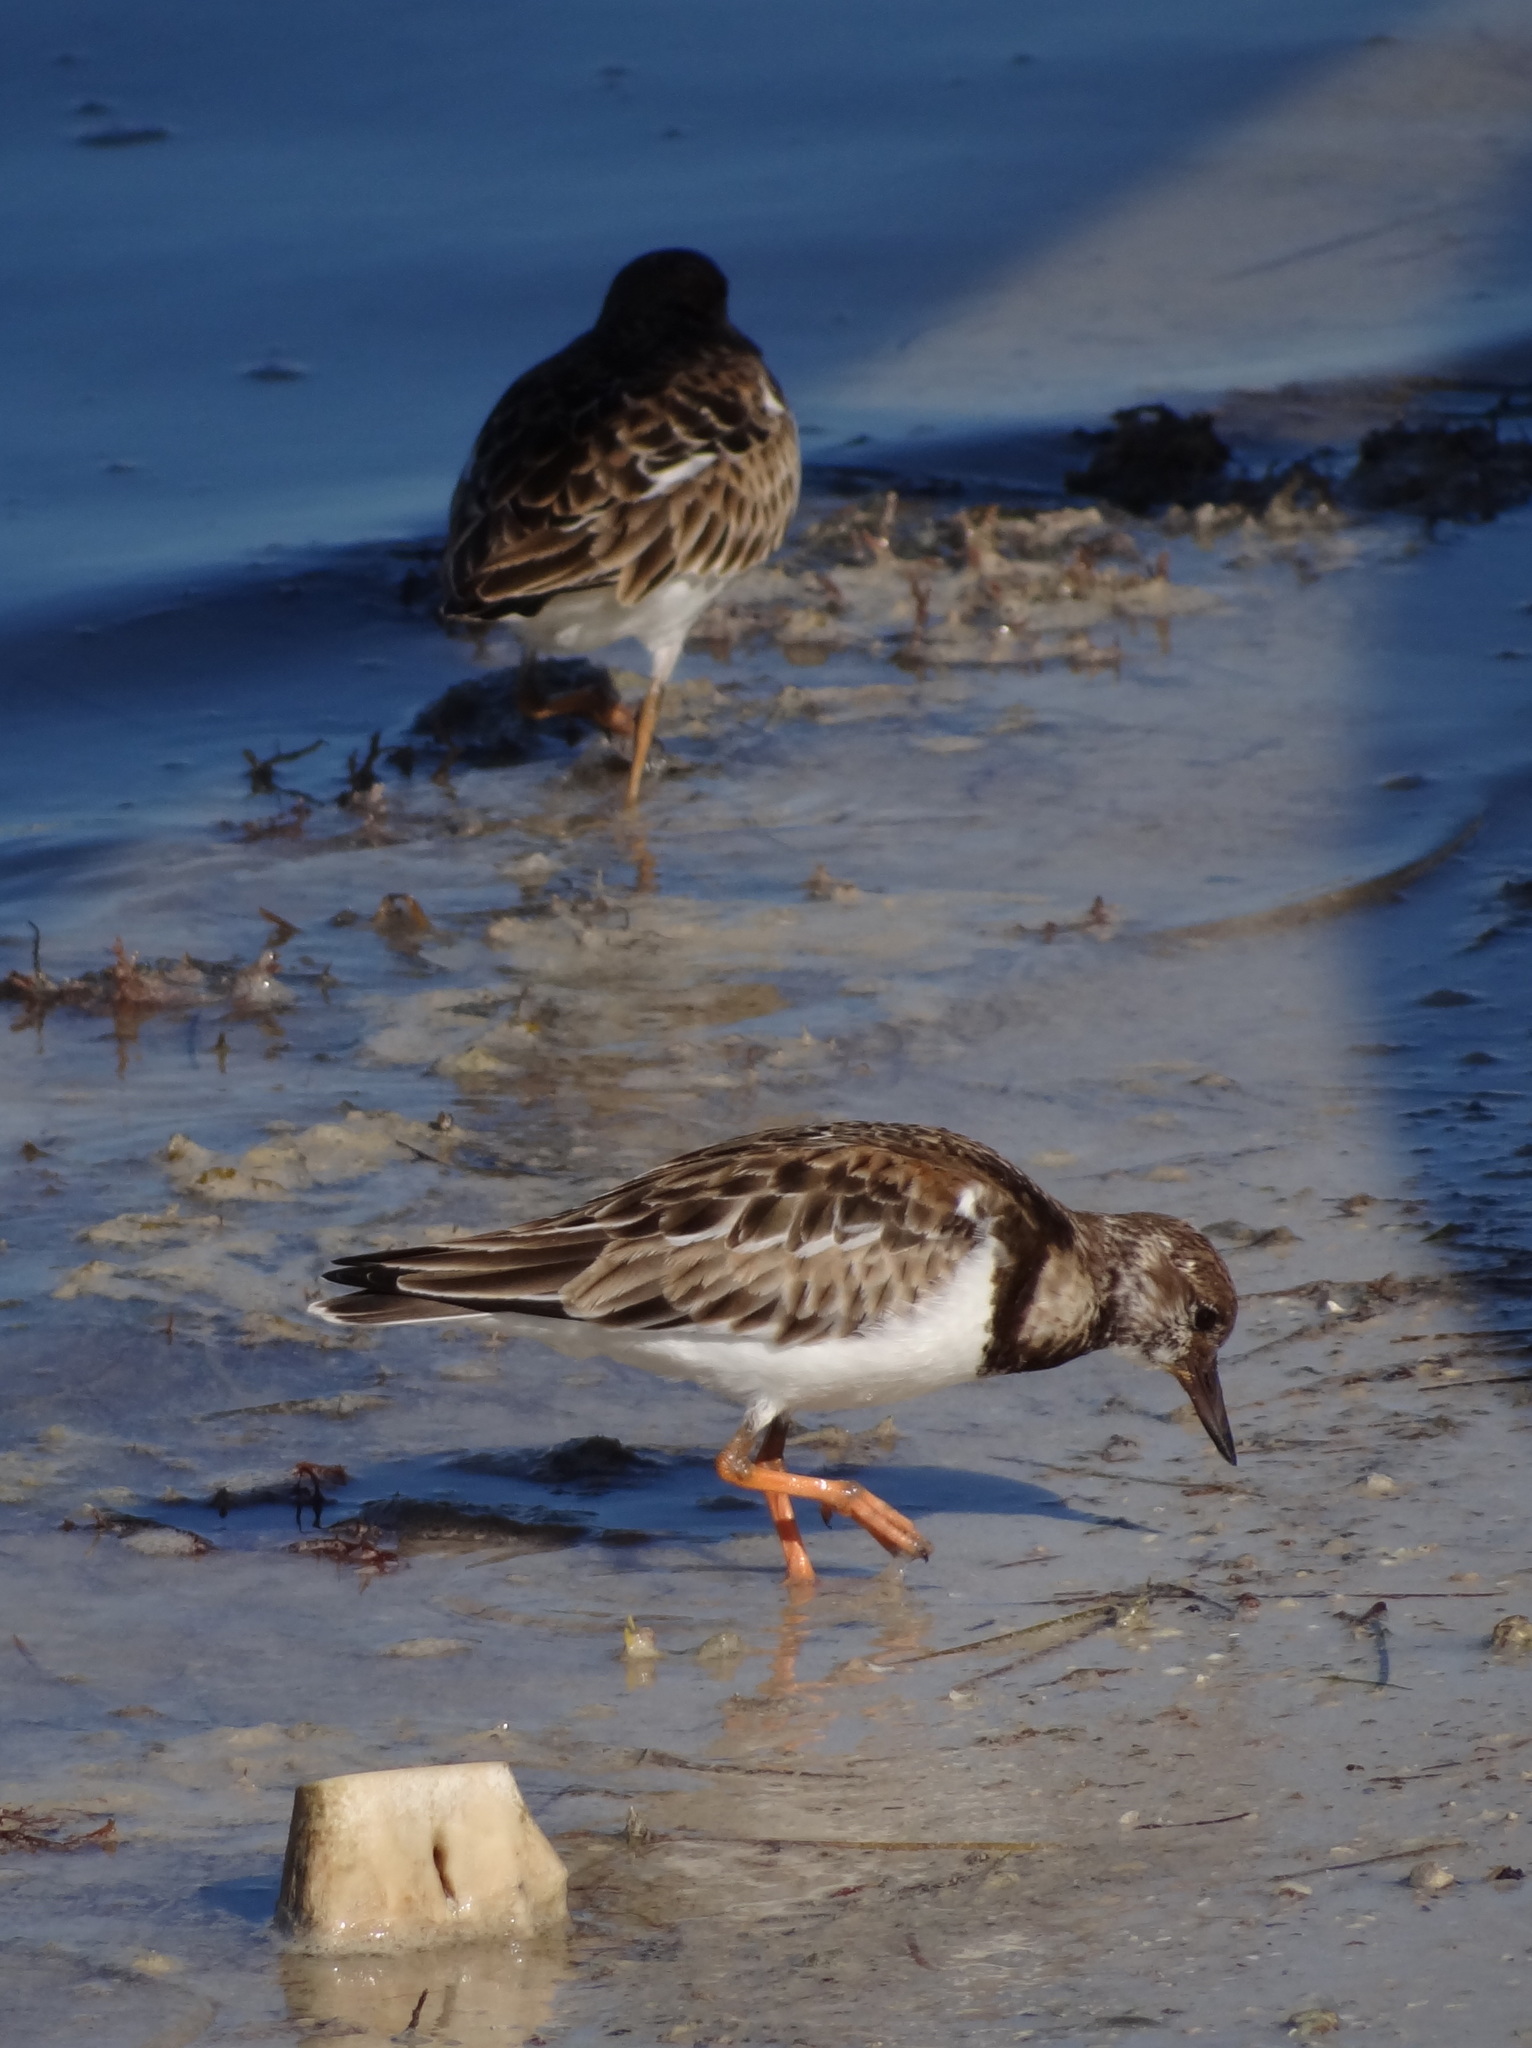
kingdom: Animalia
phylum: Chordata
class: Aves
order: Charadriiformes
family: Scolopacidae
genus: Arenaria
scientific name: Arenaria interpres
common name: Ruddy turnstone
